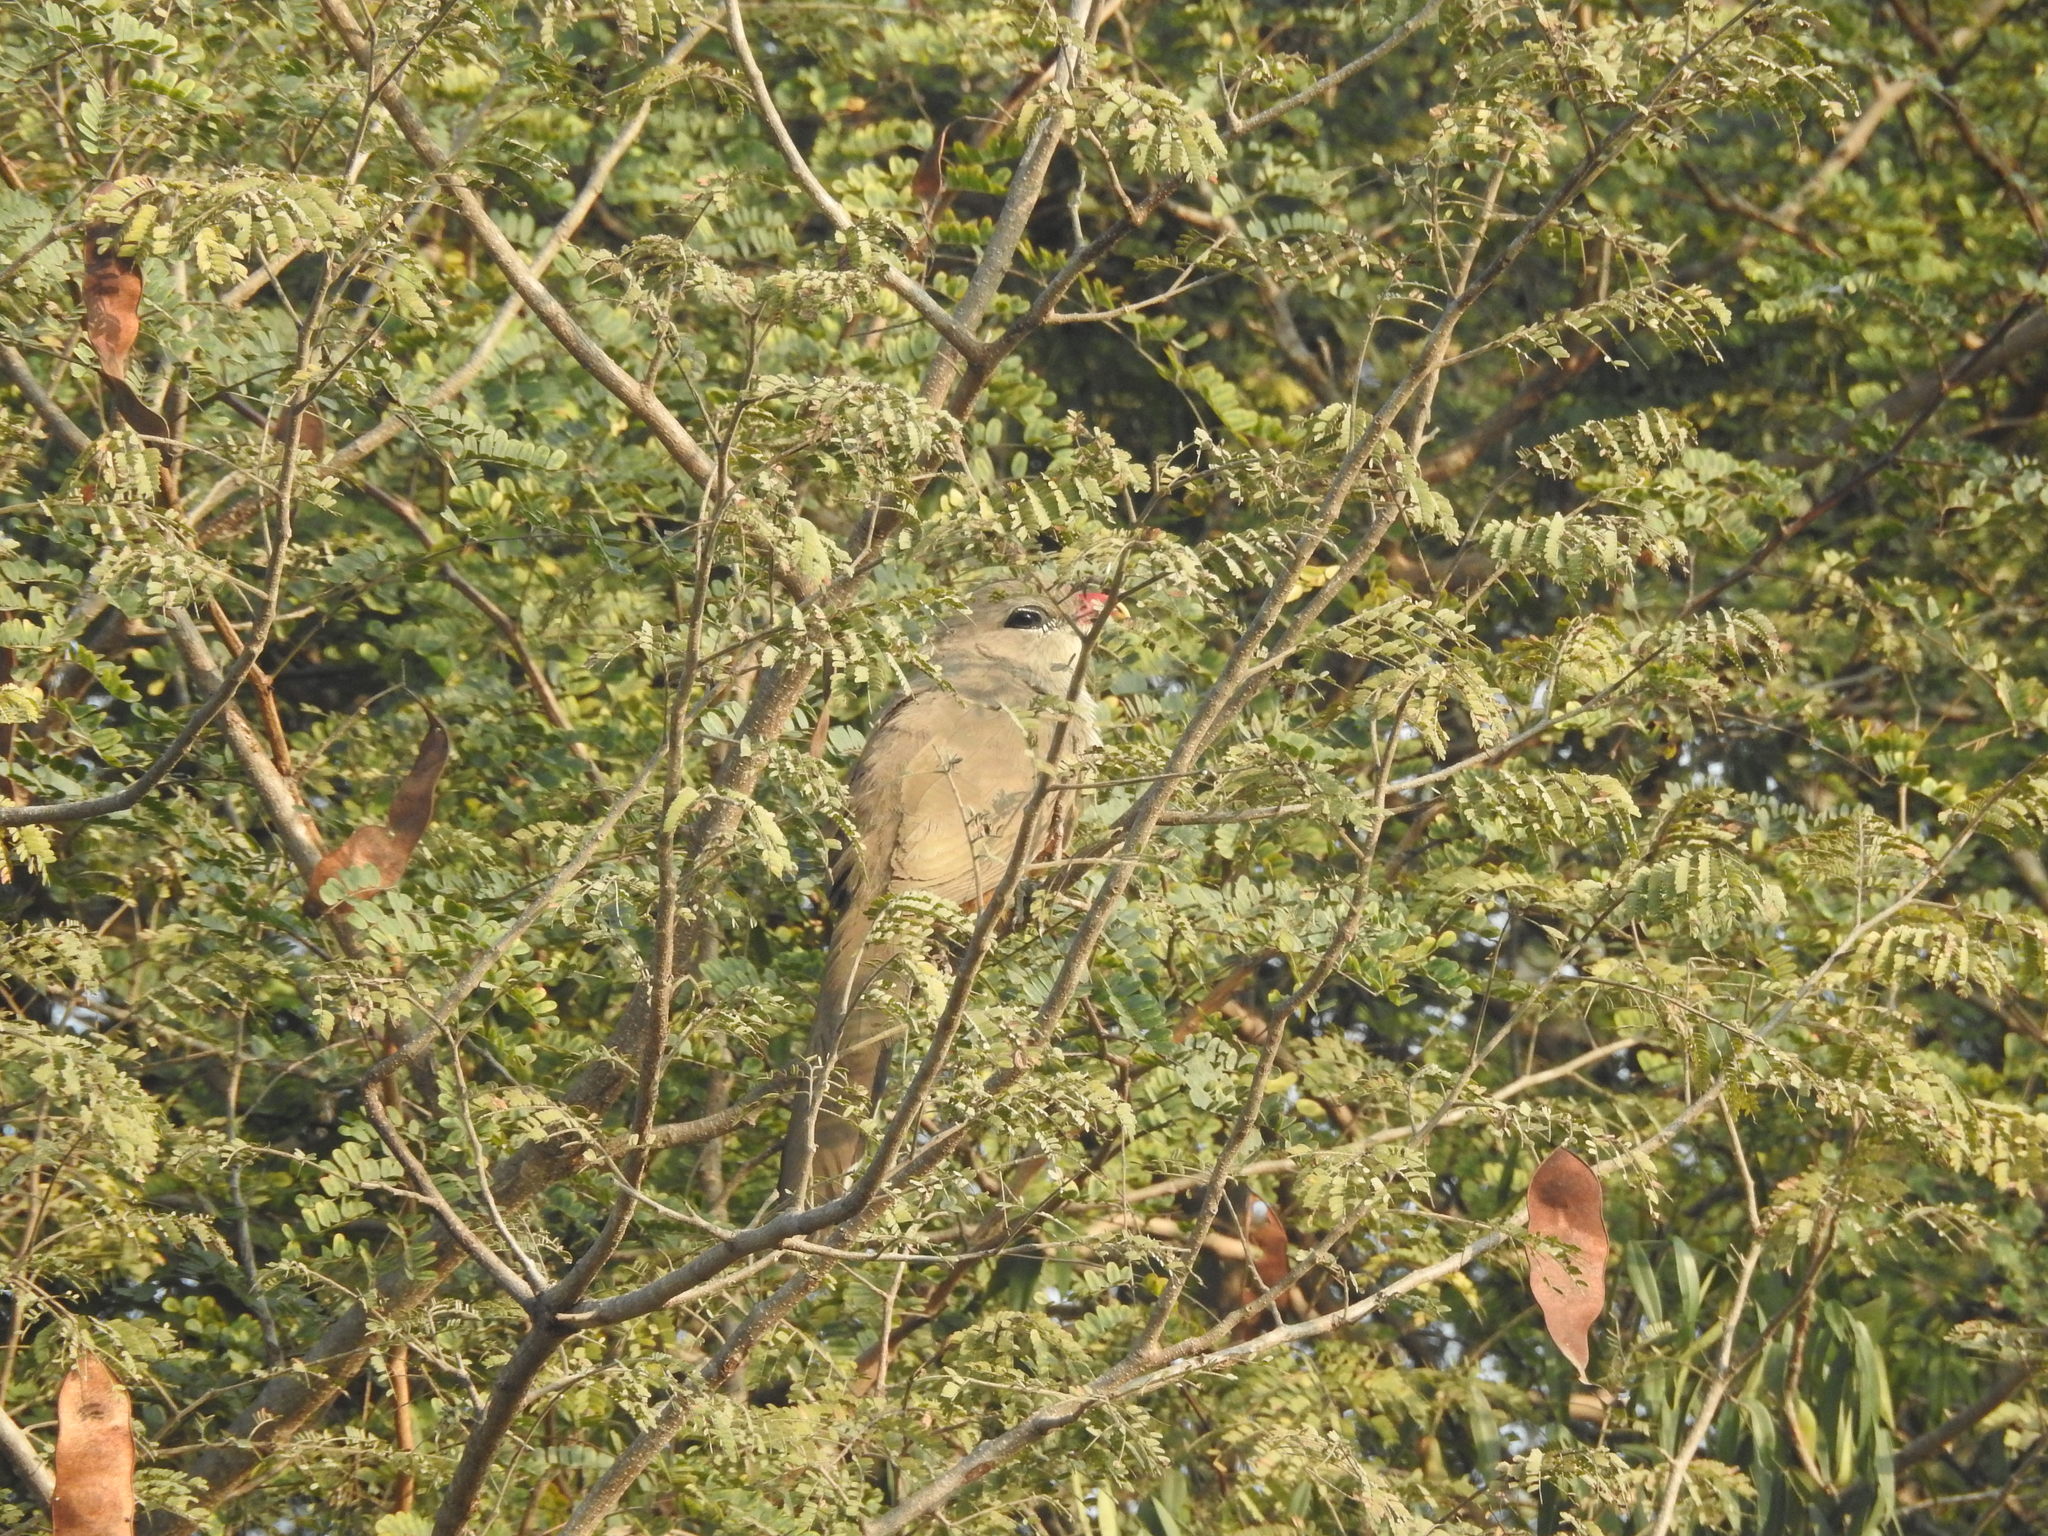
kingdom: Animalia
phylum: Chordata
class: Aves
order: Cuculiformes
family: Cuculidae
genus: Taccocua
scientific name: Taccocua leschenaultii
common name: Sirkeer malkoha
